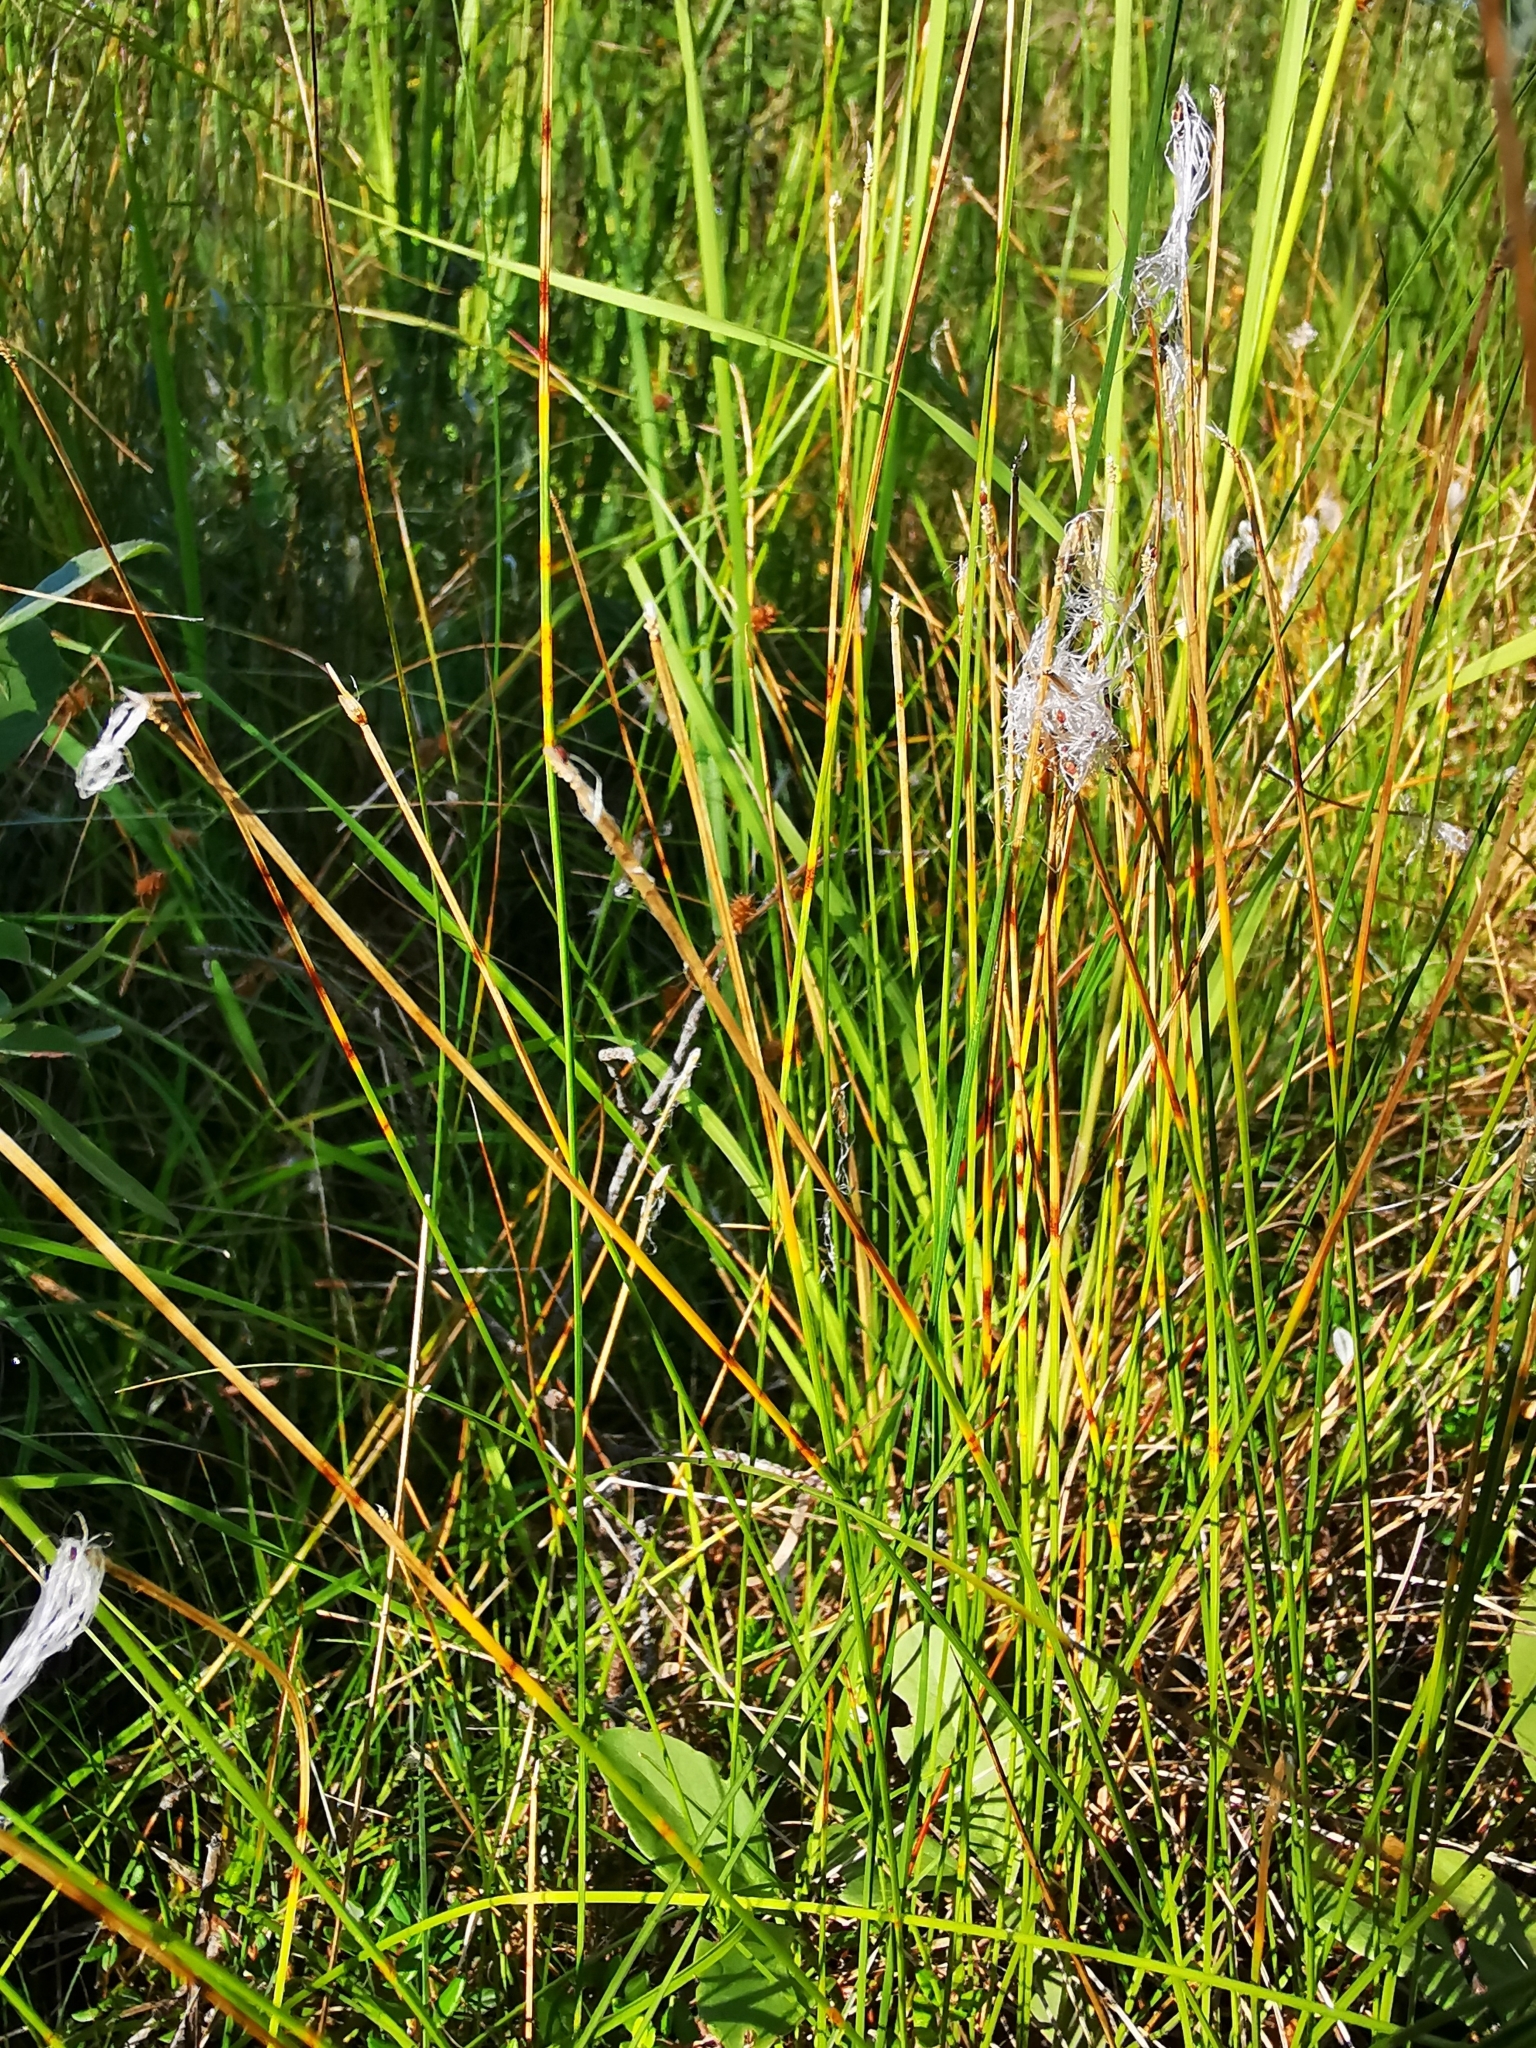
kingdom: Plantae
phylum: Tracheophyta
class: Liliopsida
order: Poales
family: Cyperaceae
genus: Trichophorum
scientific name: Trichophorum alpinum
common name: Alpine bulrush
